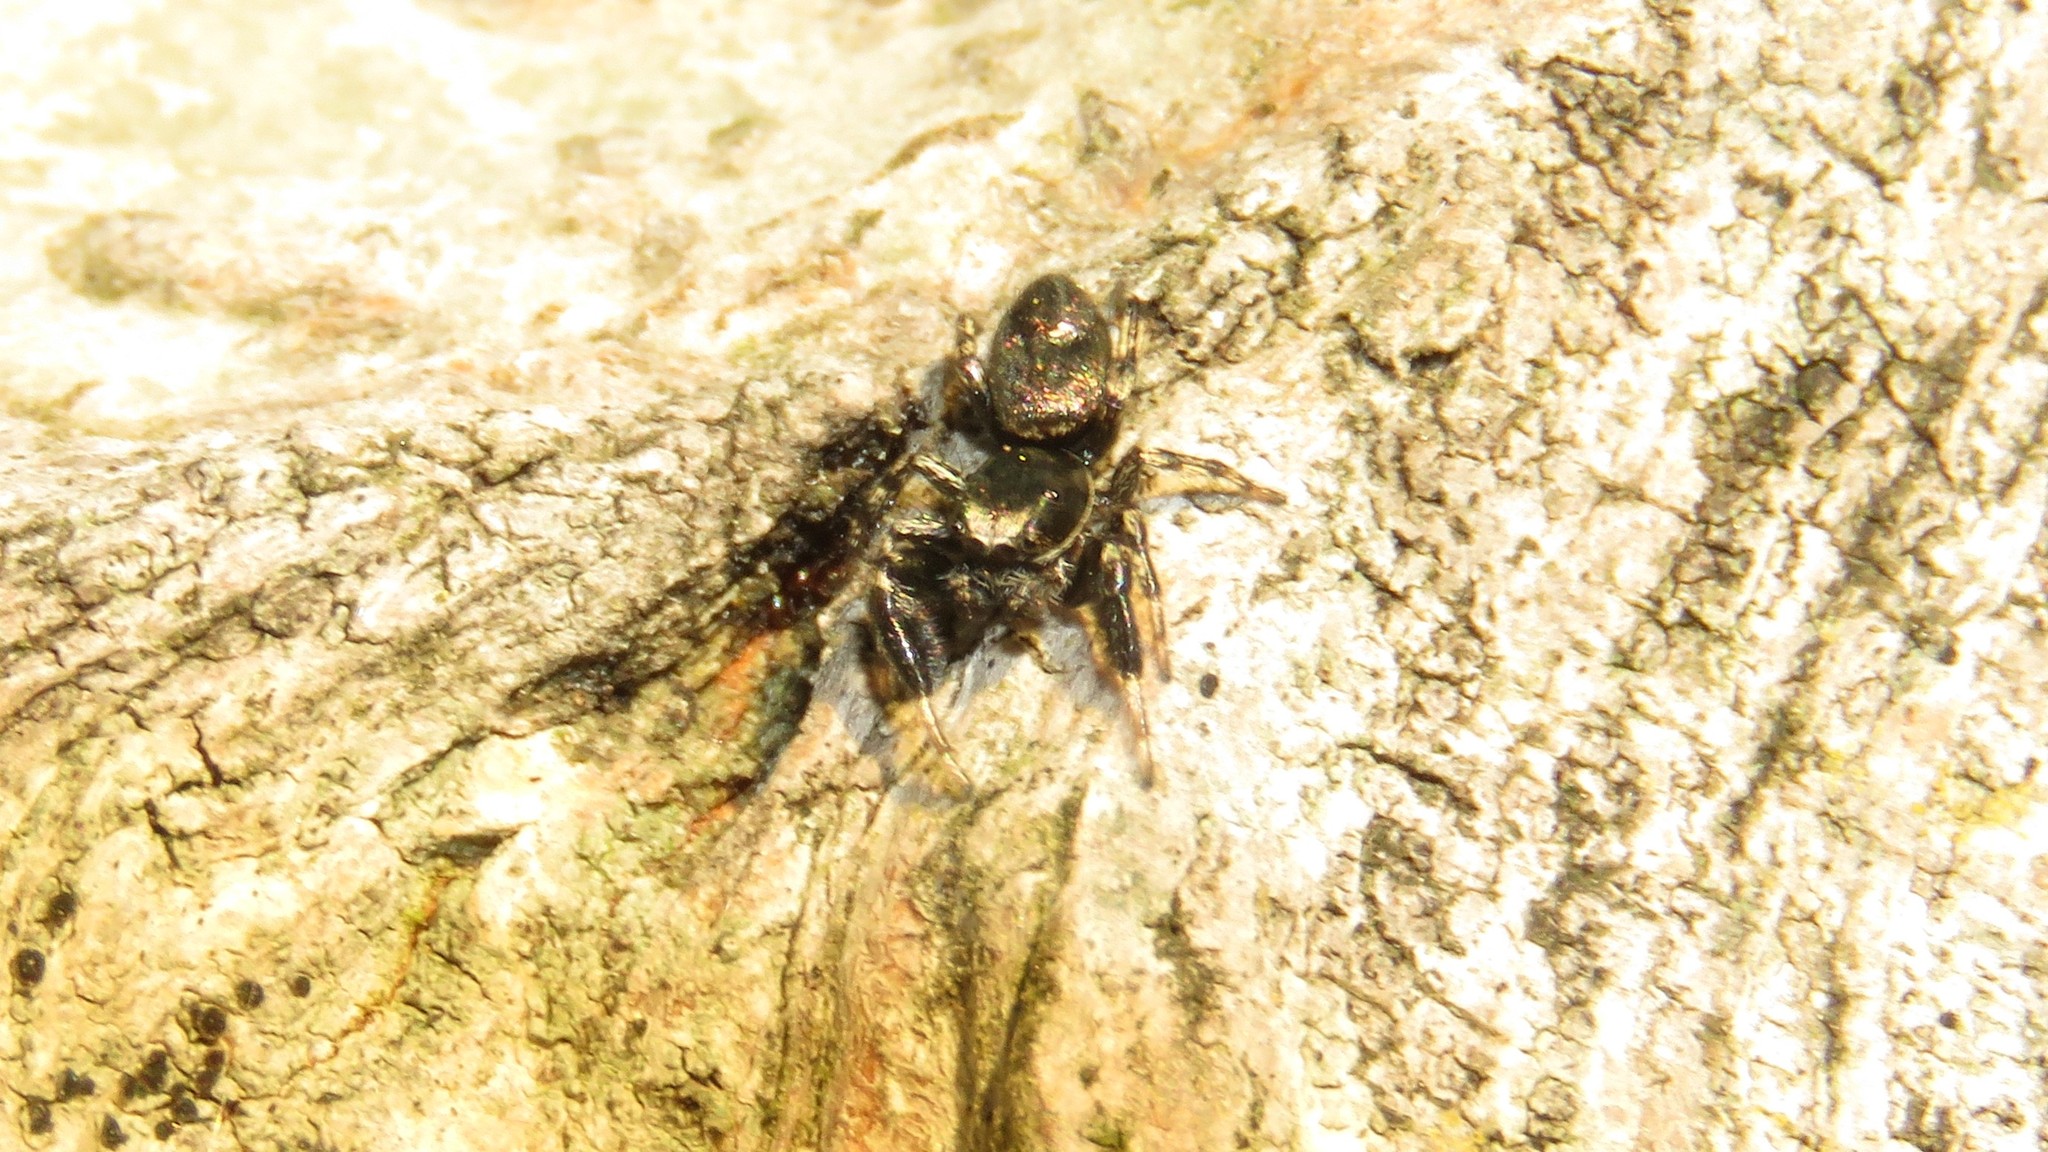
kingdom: Animalia
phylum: Arthropoda
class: Arachnida
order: Araneae
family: Salticidae
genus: Tutelina
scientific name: Tutelina harti
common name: Hart's jumping spider
